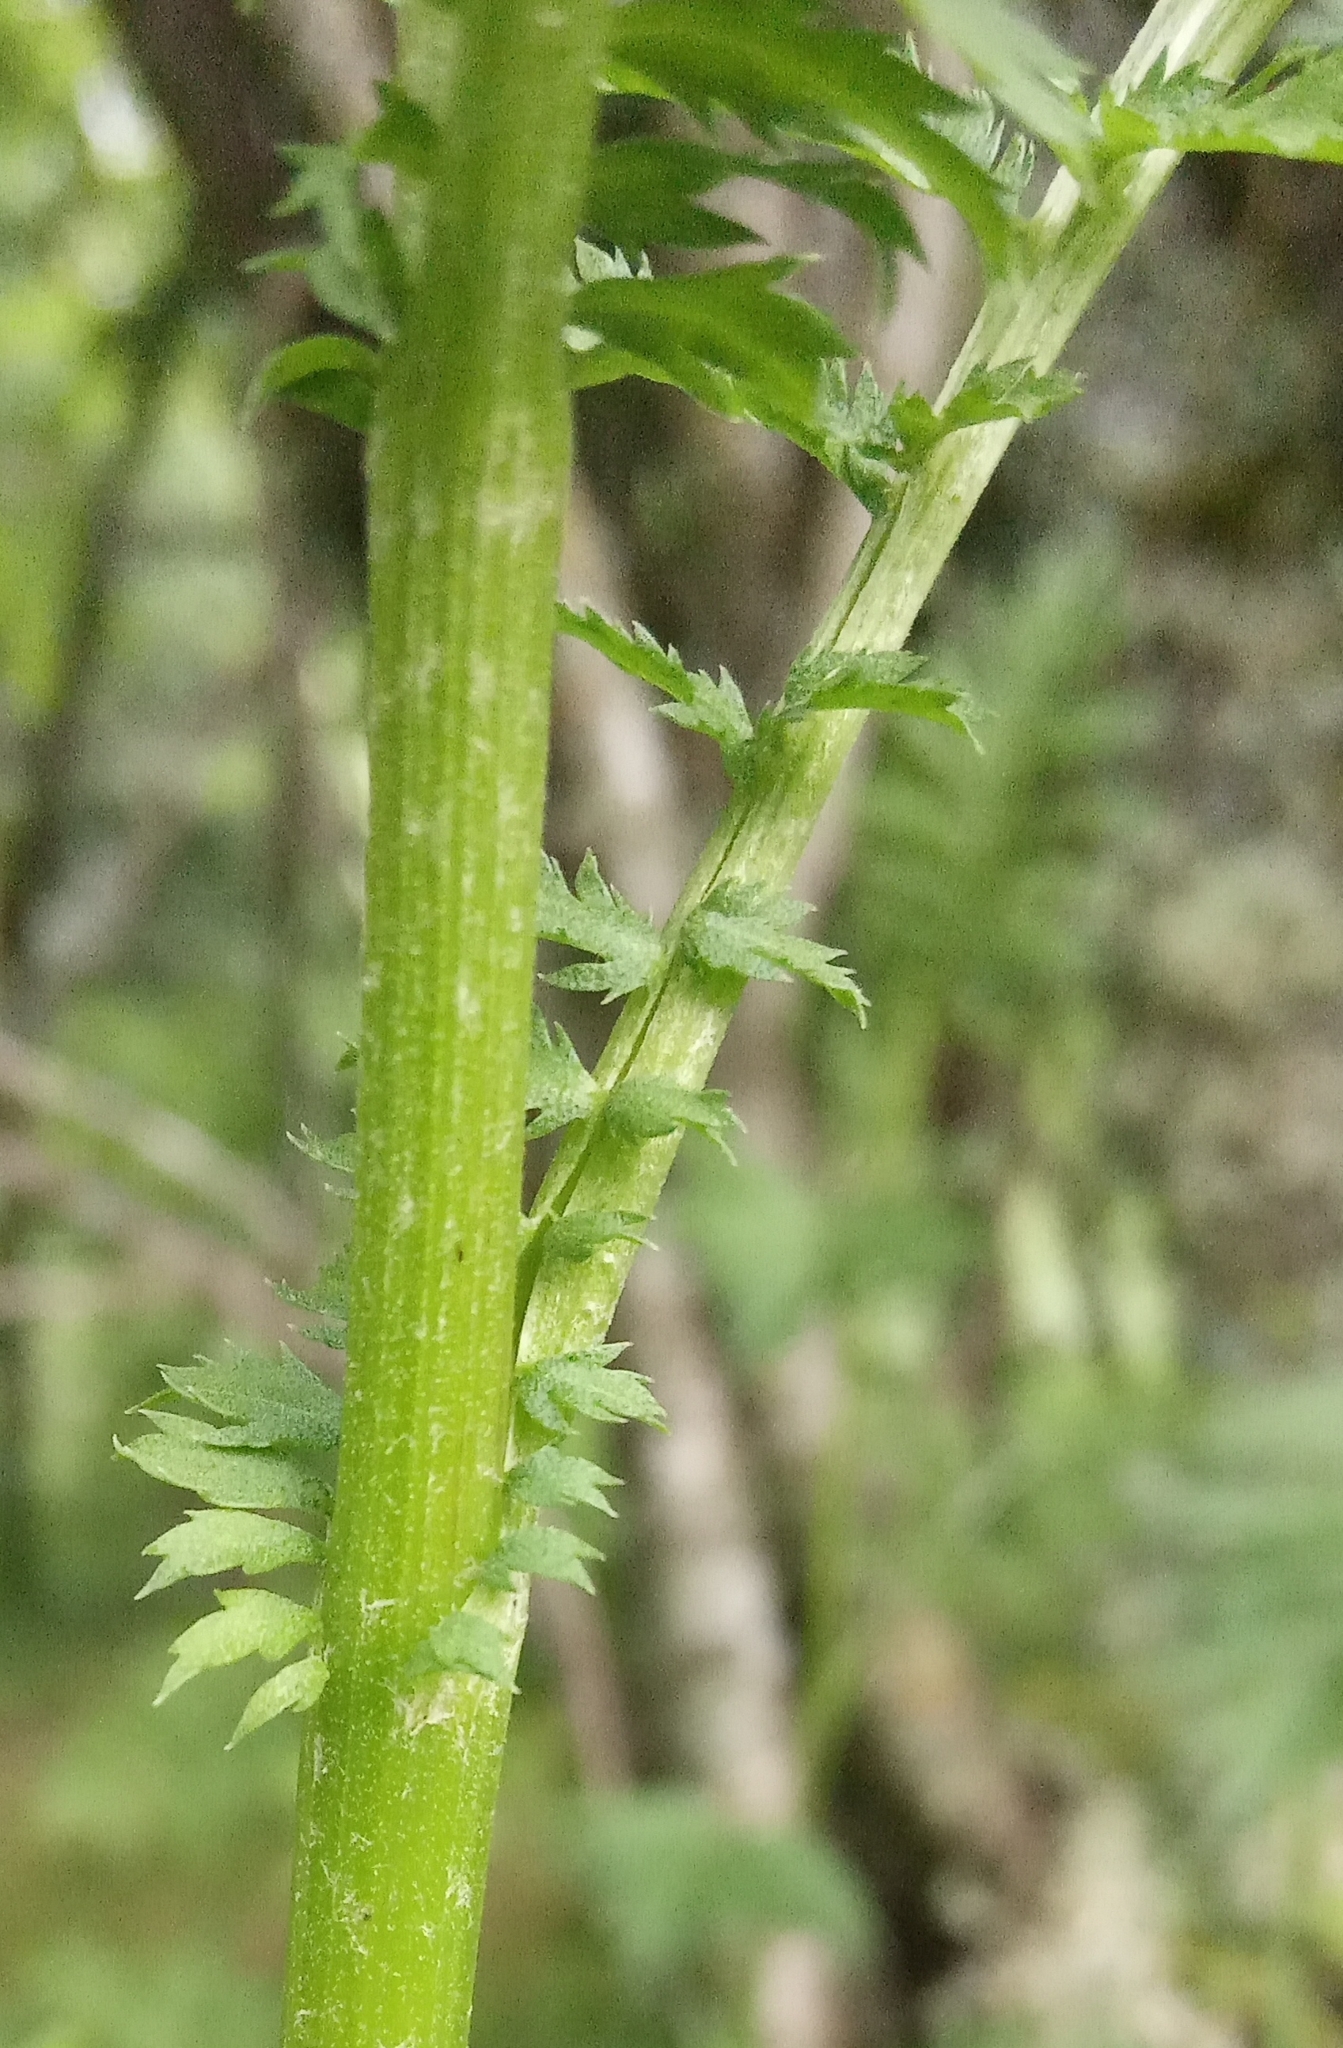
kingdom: Plantae
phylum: Tracheophyta
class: Magnoliopsida
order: Asterales
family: Asteraceae
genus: Tanacetum
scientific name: Tanacetum vulgare
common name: Common tansy
